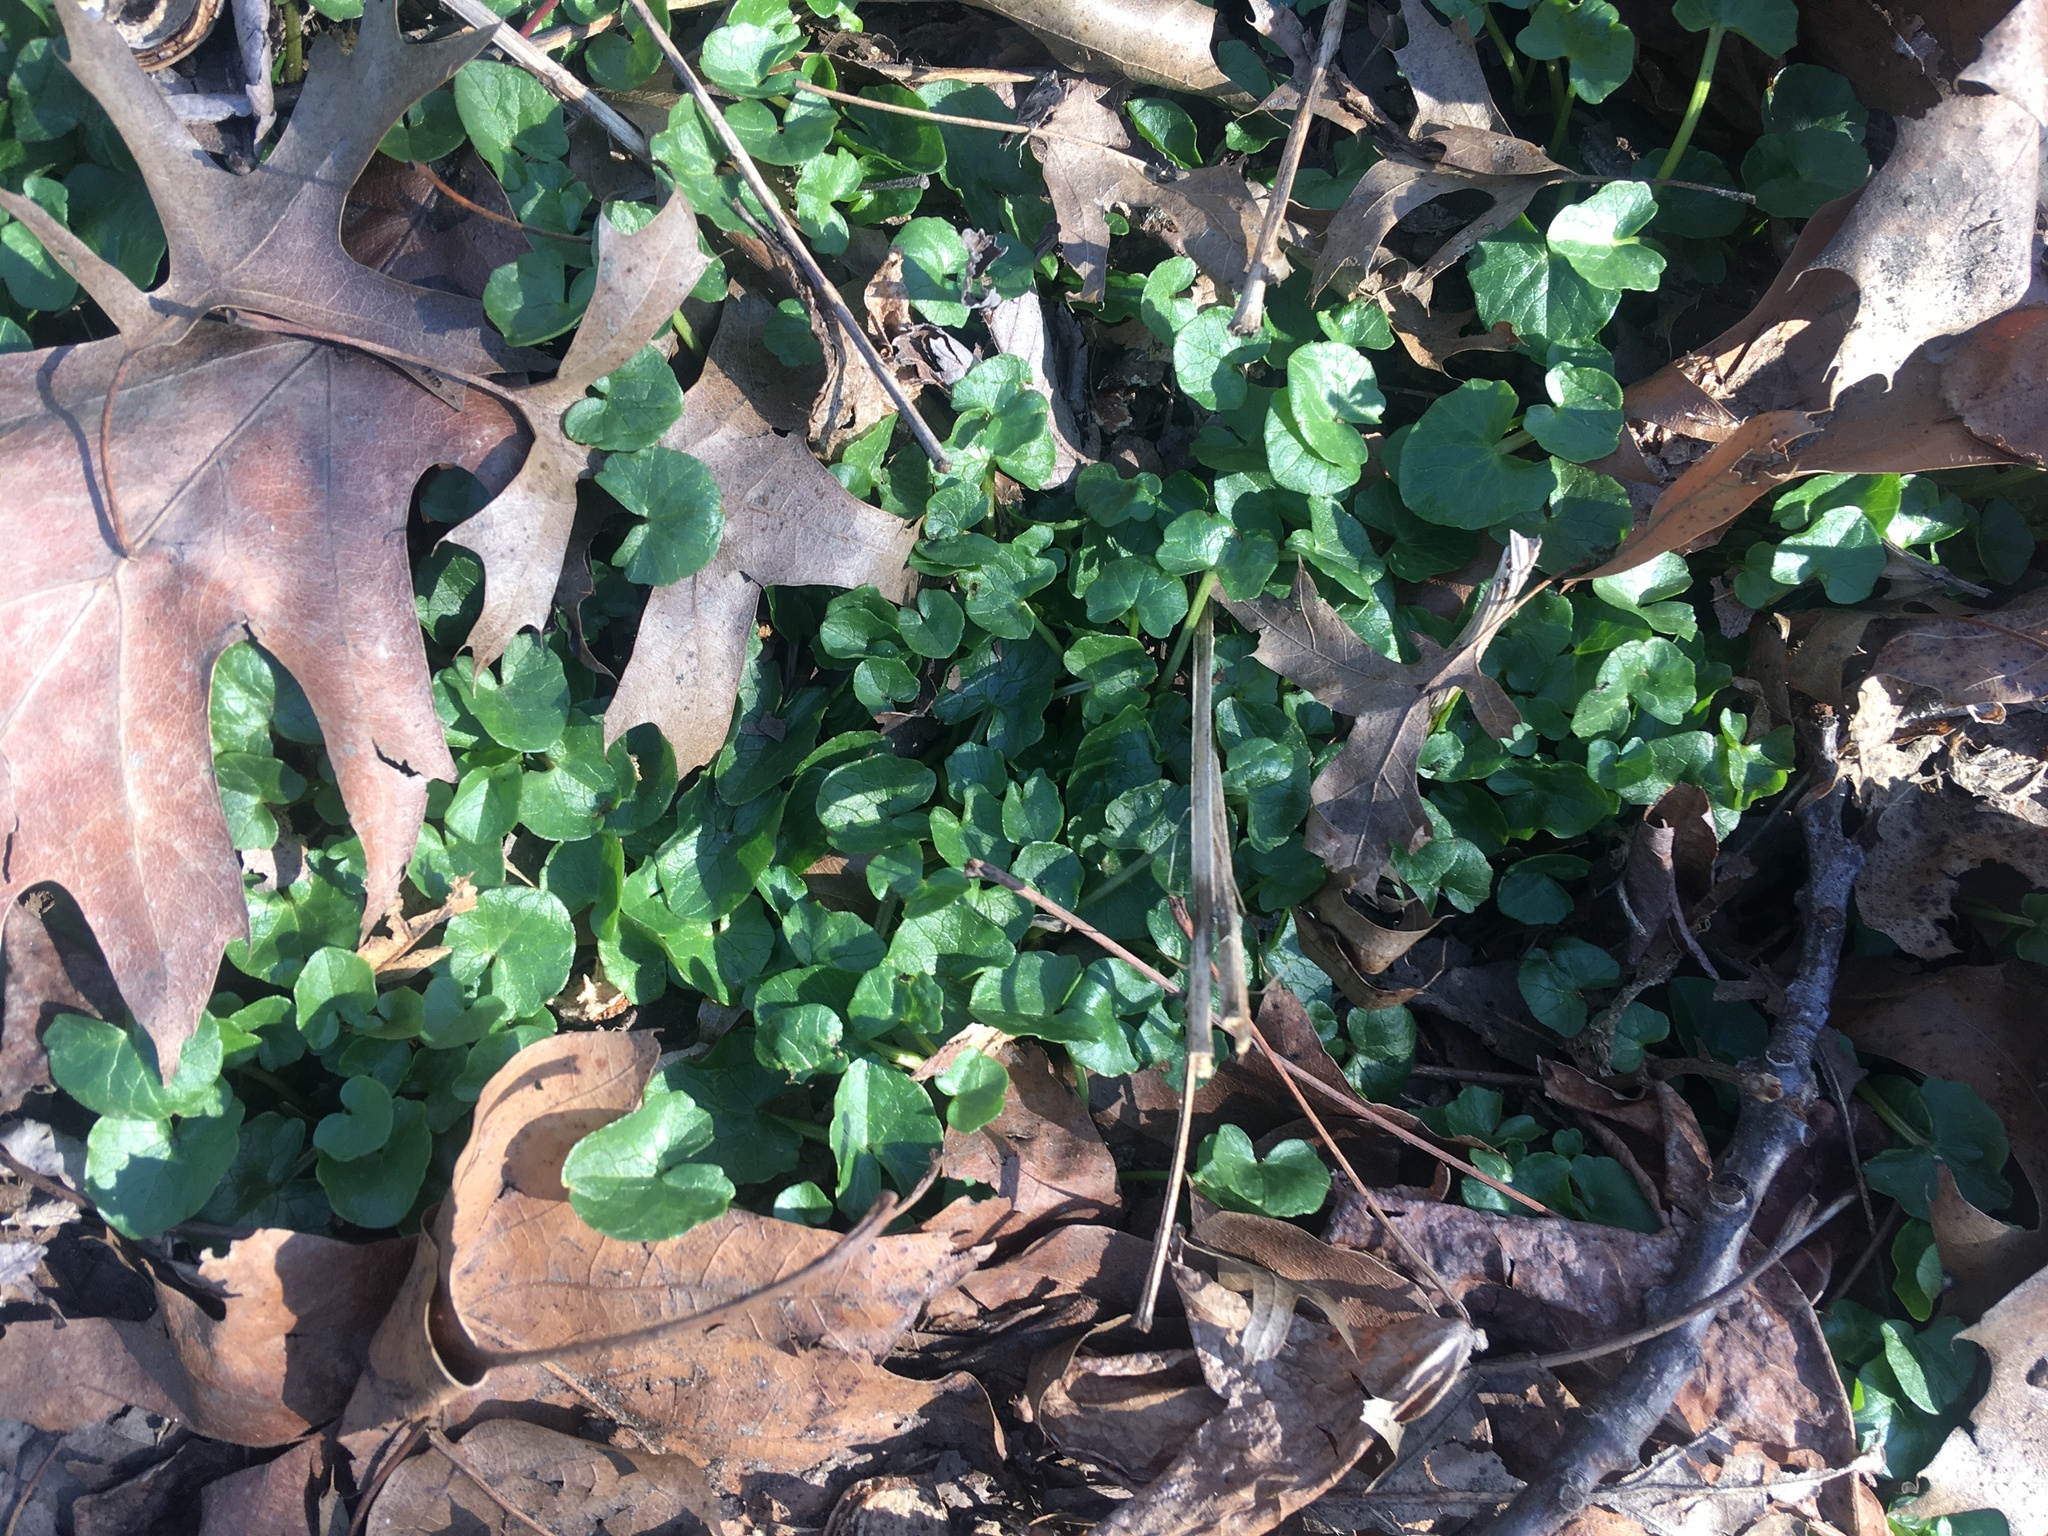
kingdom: Plantae
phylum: Tracheophyta
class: Magnoliopsida
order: Ranunculales
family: Ranunculaceae
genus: Ficaria
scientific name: Ficaria verna
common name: Lesser celandine
